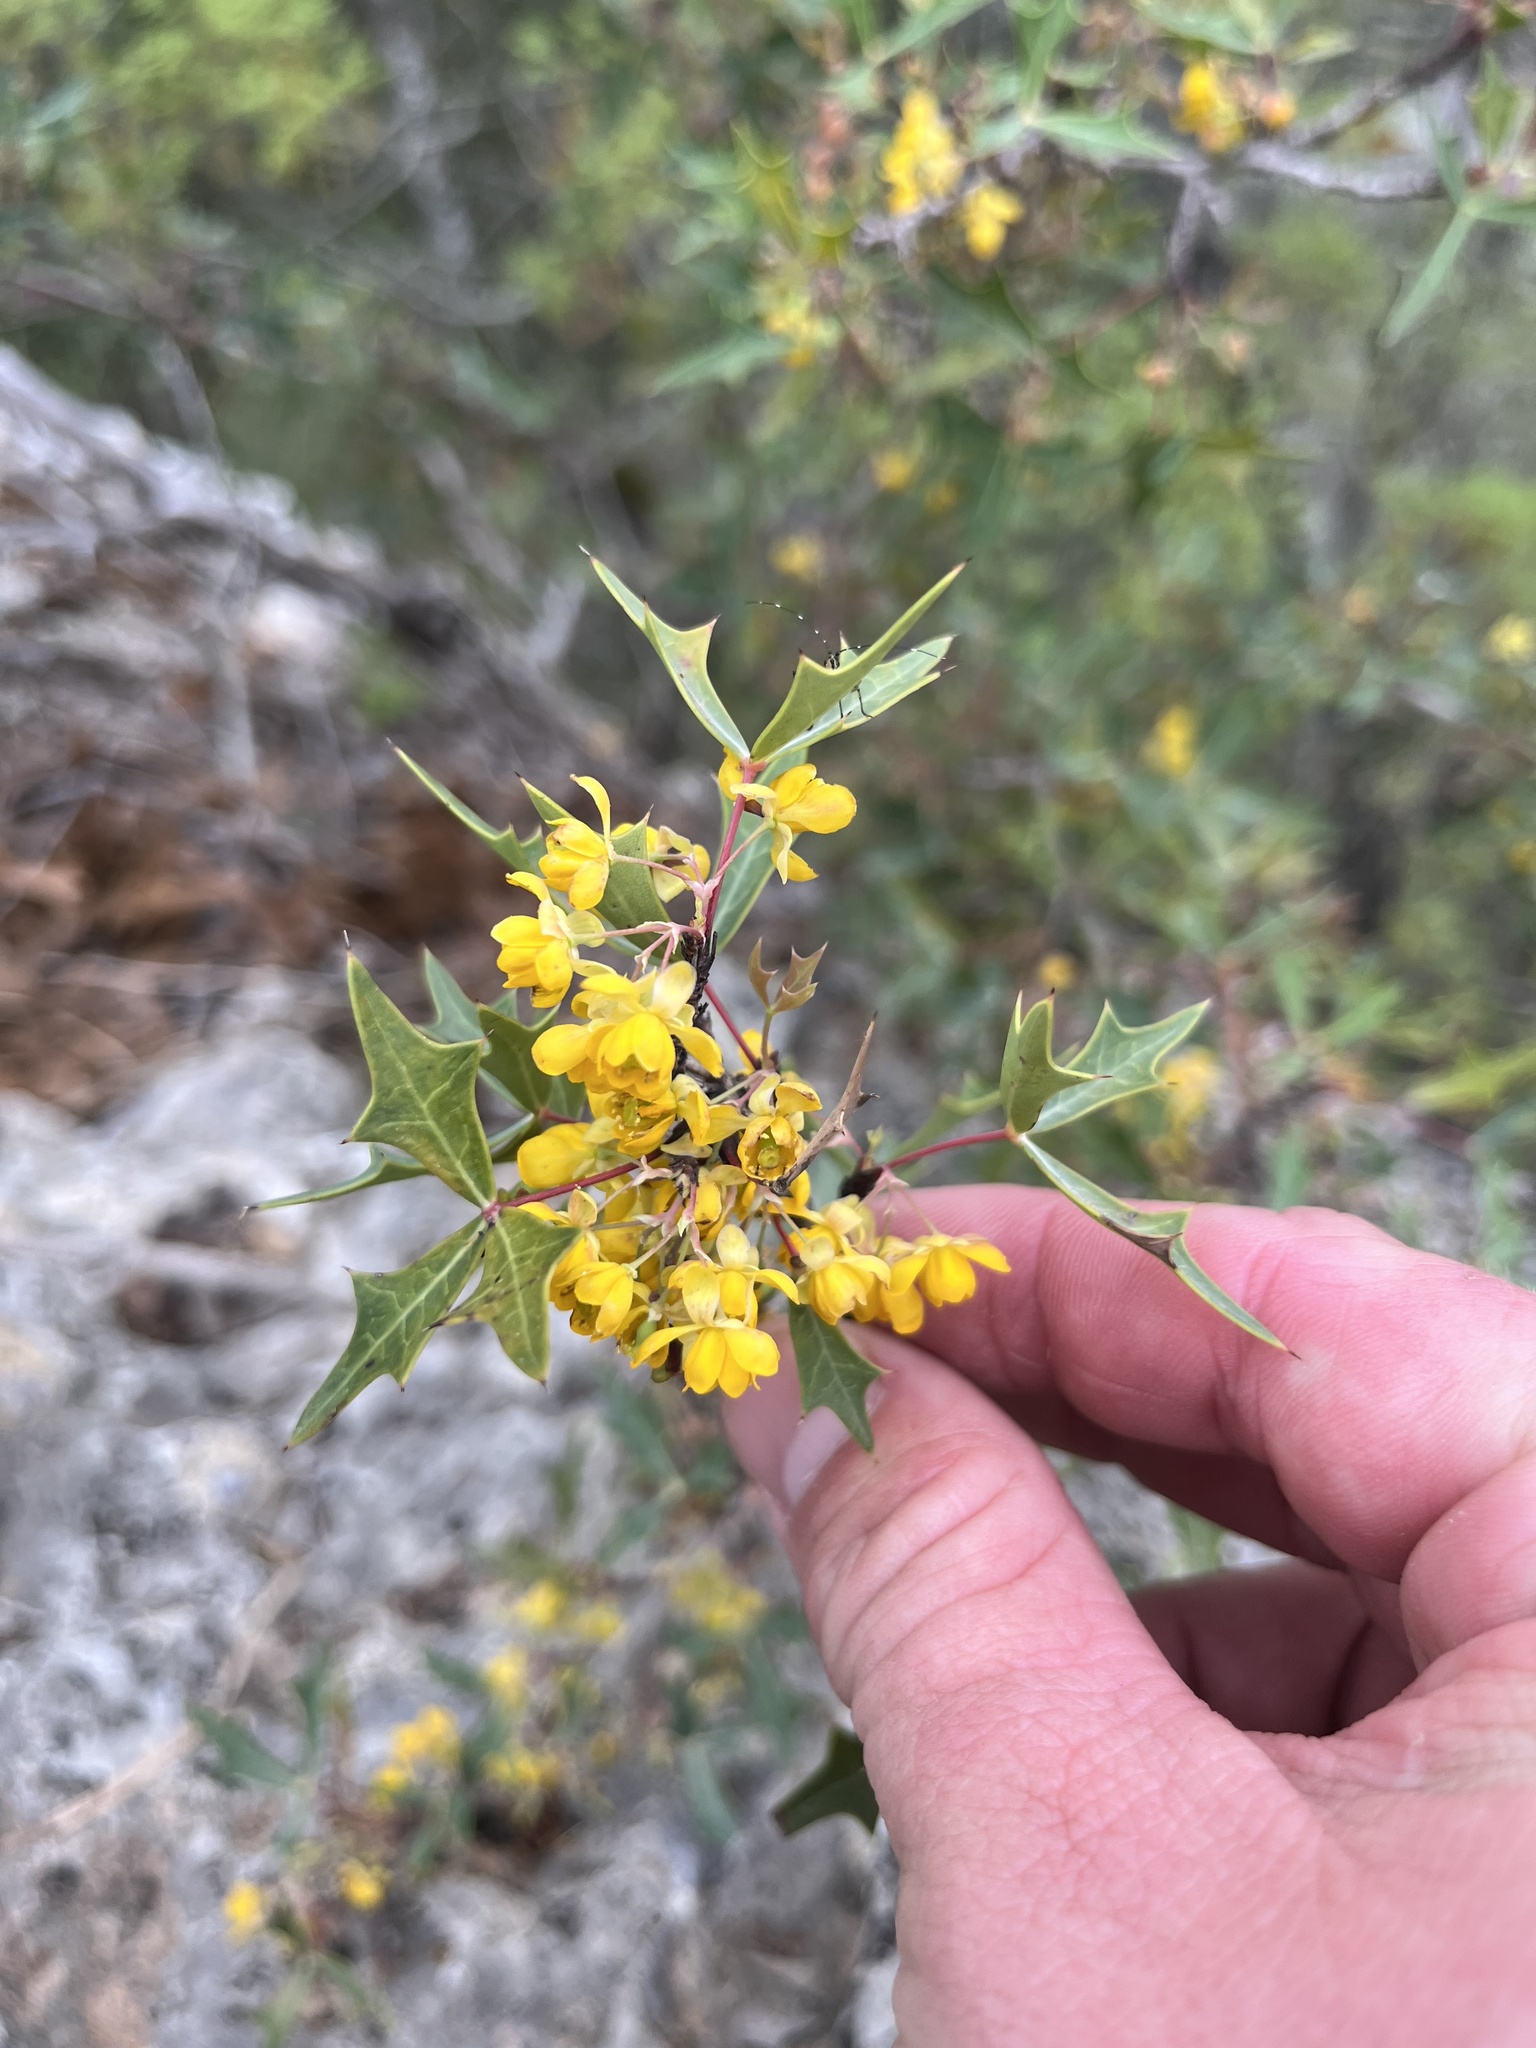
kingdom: Plantae
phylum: Tracheophyta
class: Magnoliopsida
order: Ranunculales
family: Berberidaceae
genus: Alloberberis
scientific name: Alloberberis trifoliolata
